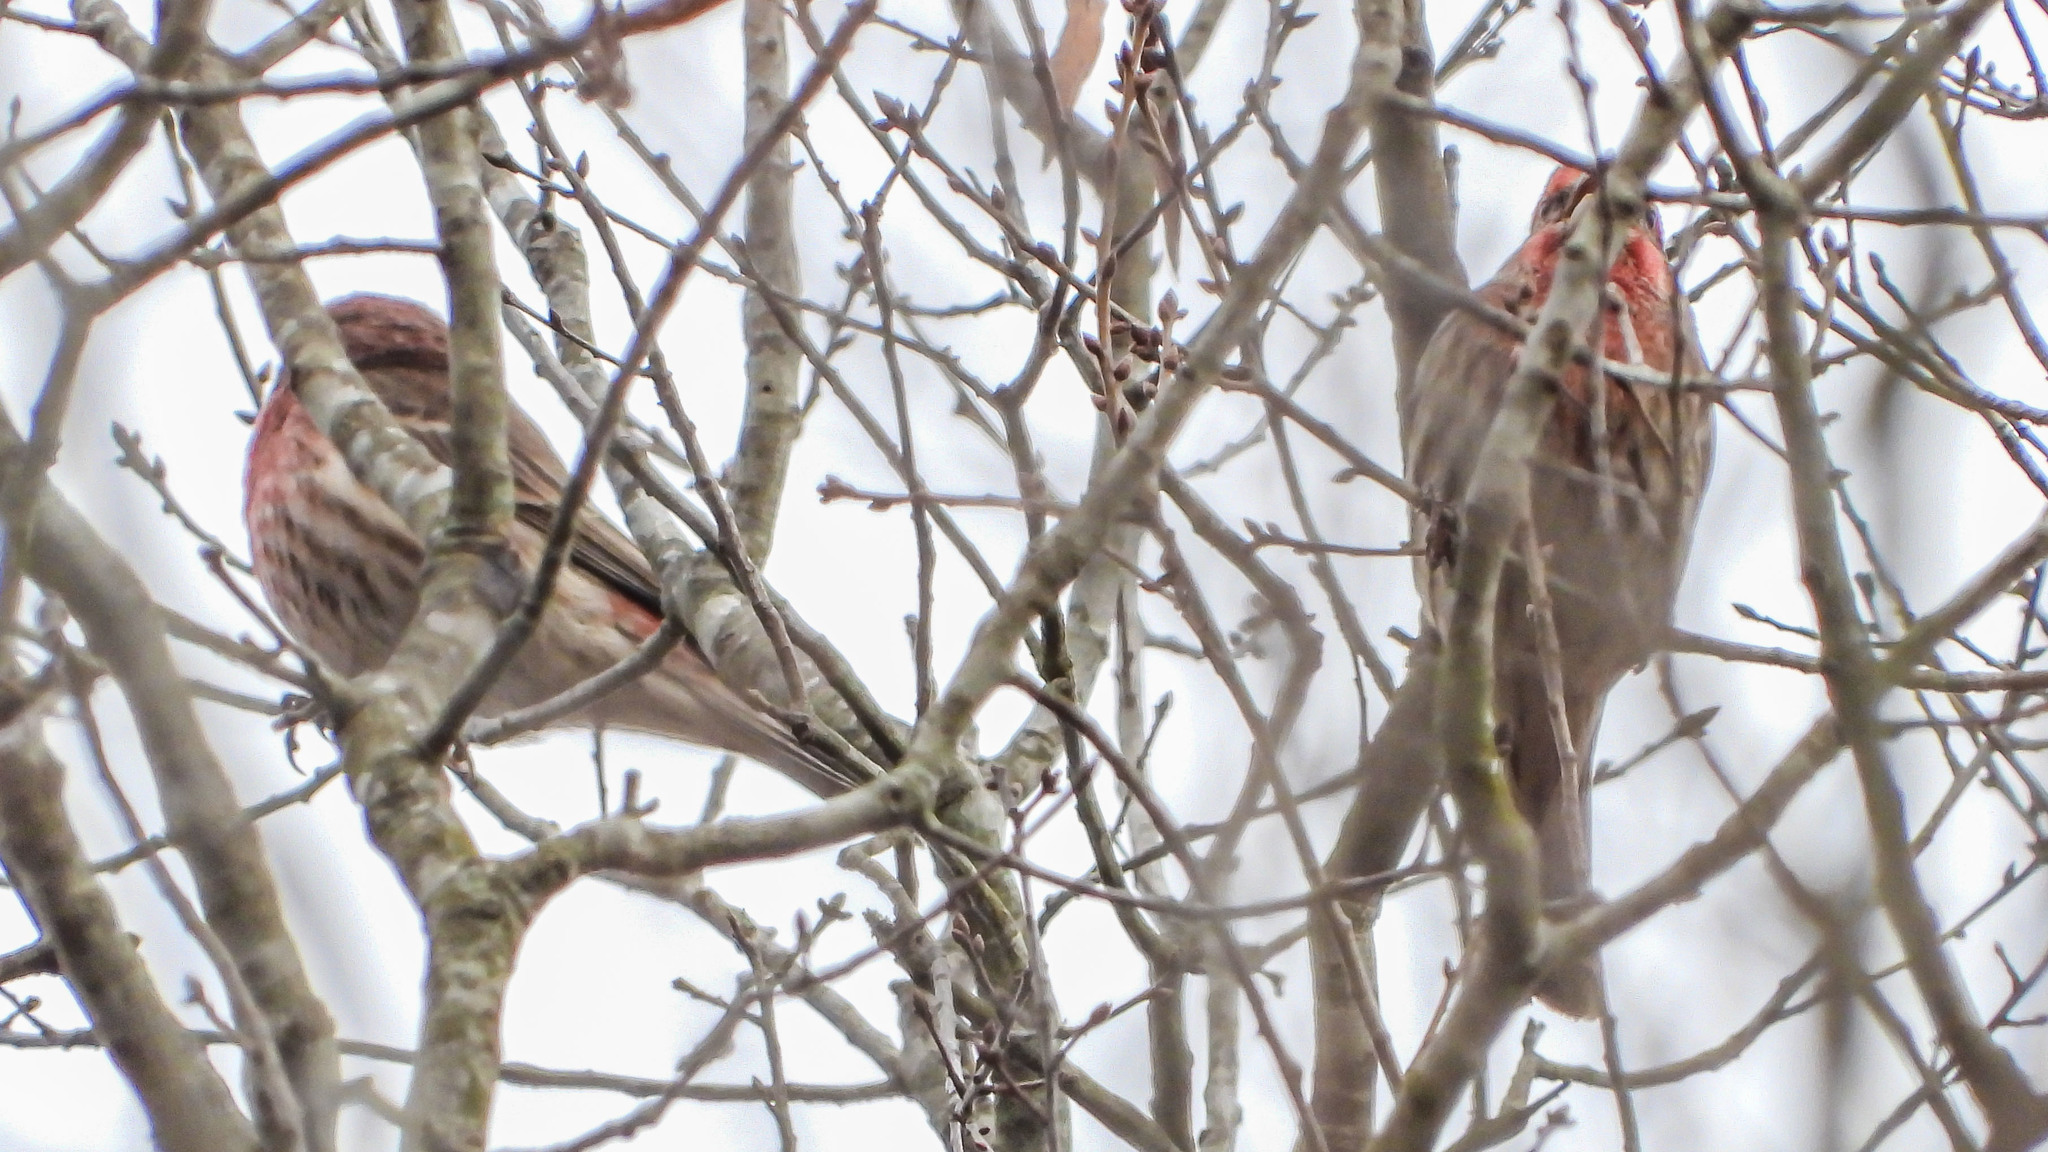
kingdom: Animalia
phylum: Chordata
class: Aves
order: Passeriformes
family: Fringillidae
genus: Haemorhous
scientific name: Haemorhous mexicanus
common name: House finch
